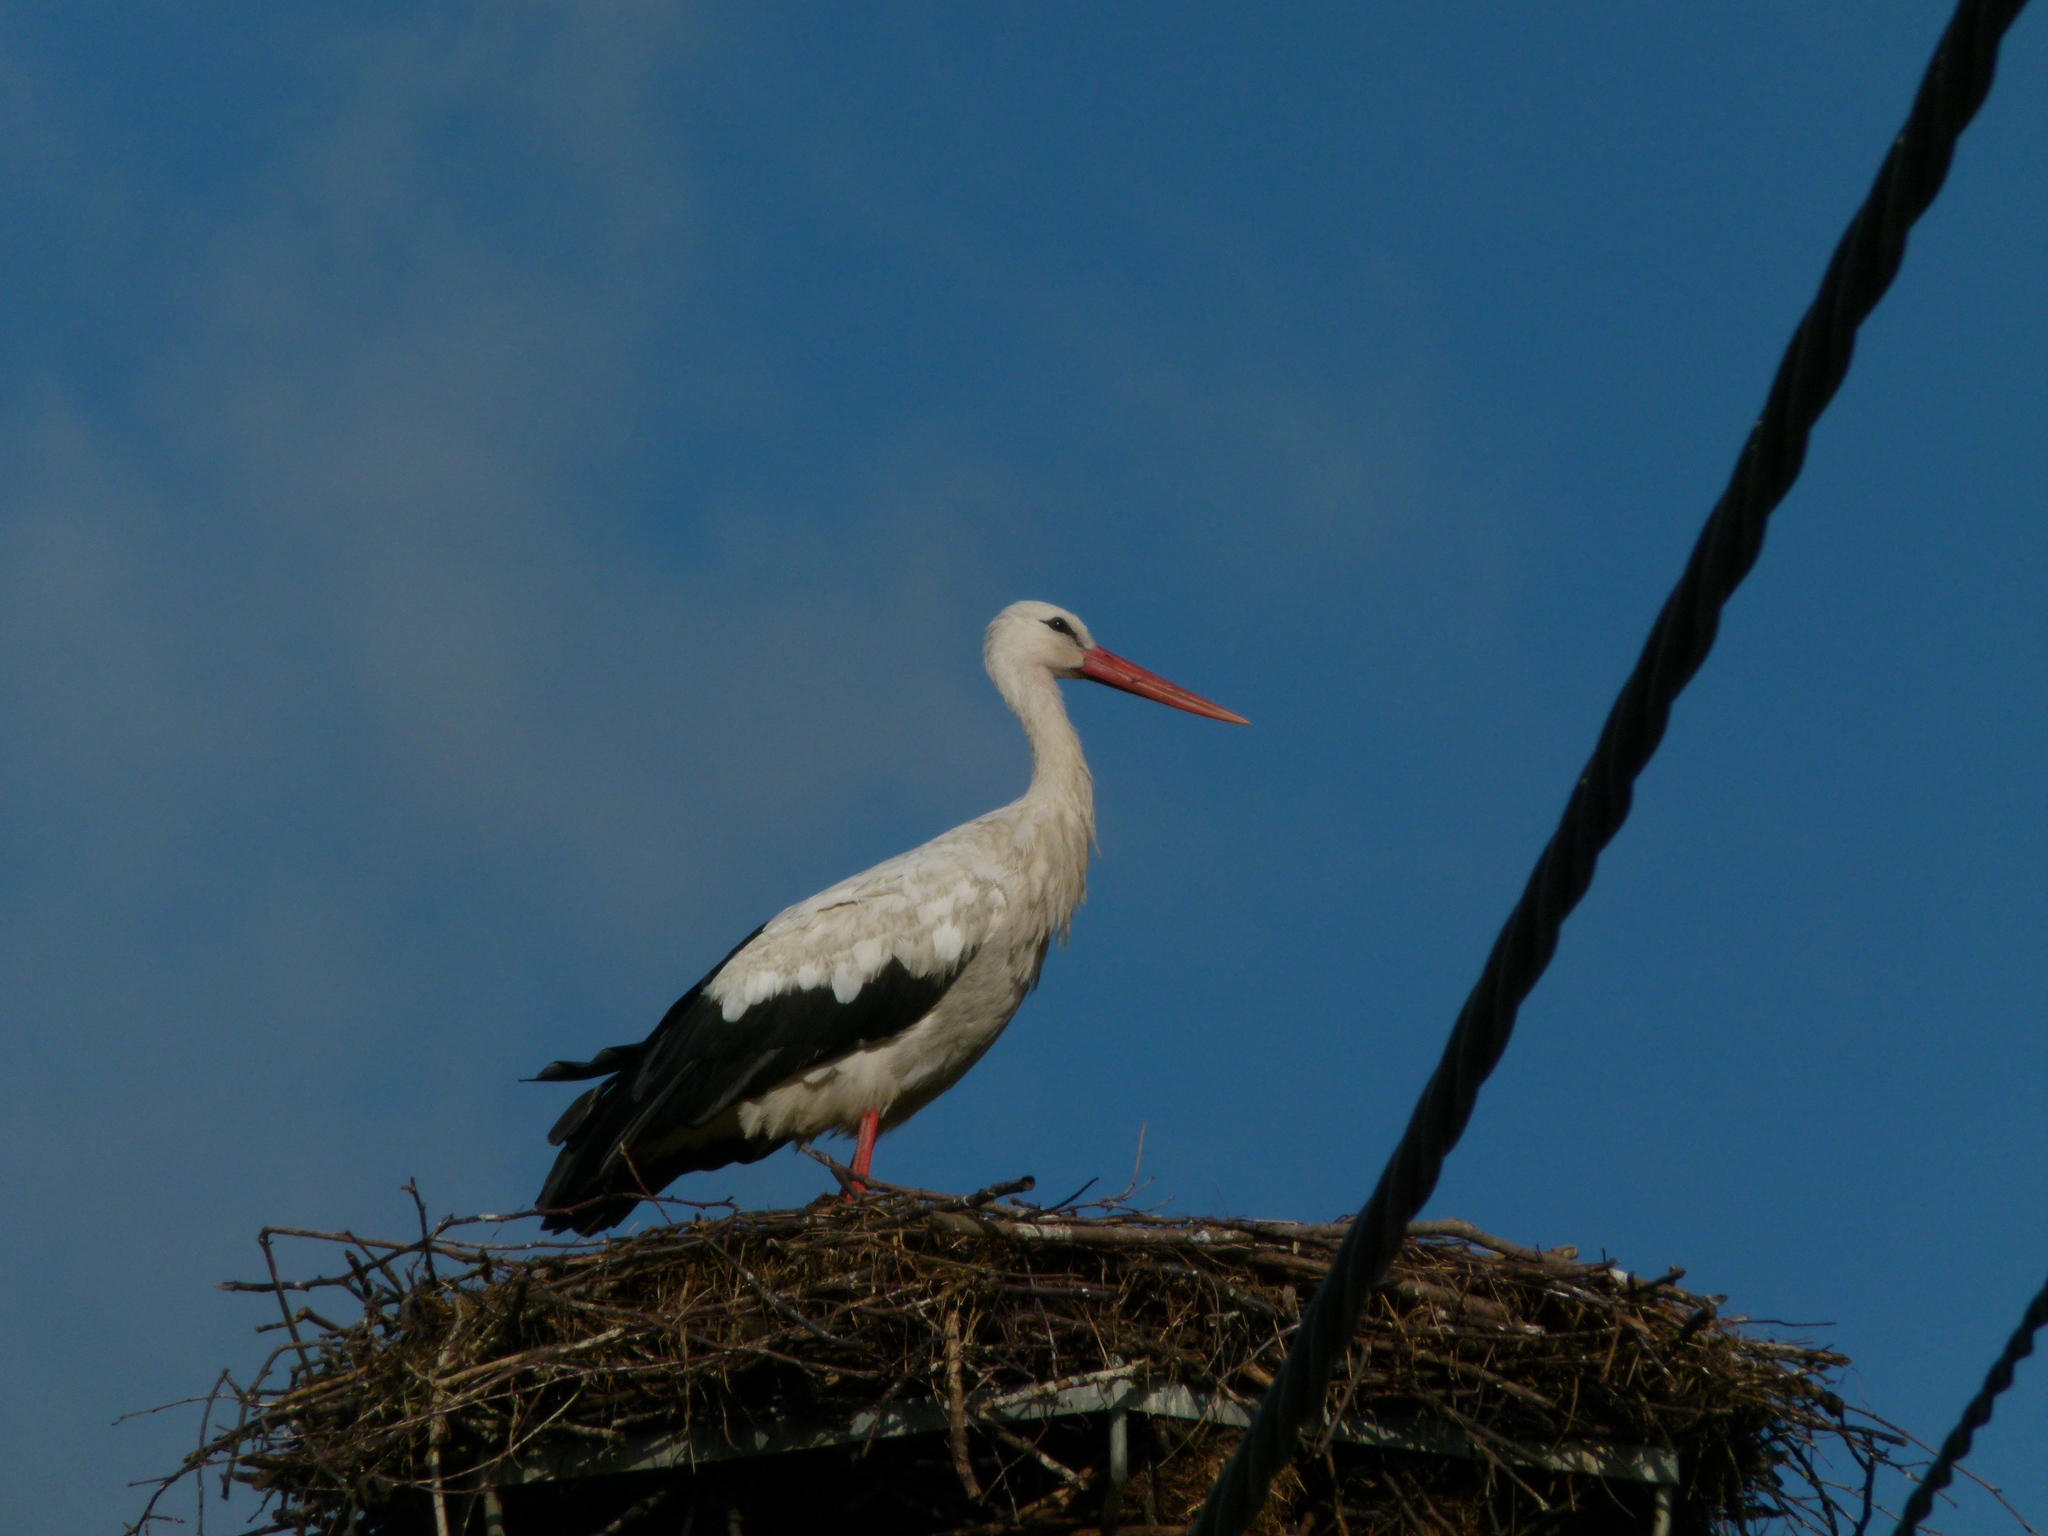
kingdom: Animalia
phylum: Chordata
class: Aves
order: Ciconiiformes
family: Ciconiidae
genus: Ciconia
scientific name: Ciconia ciconia
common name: White stork
